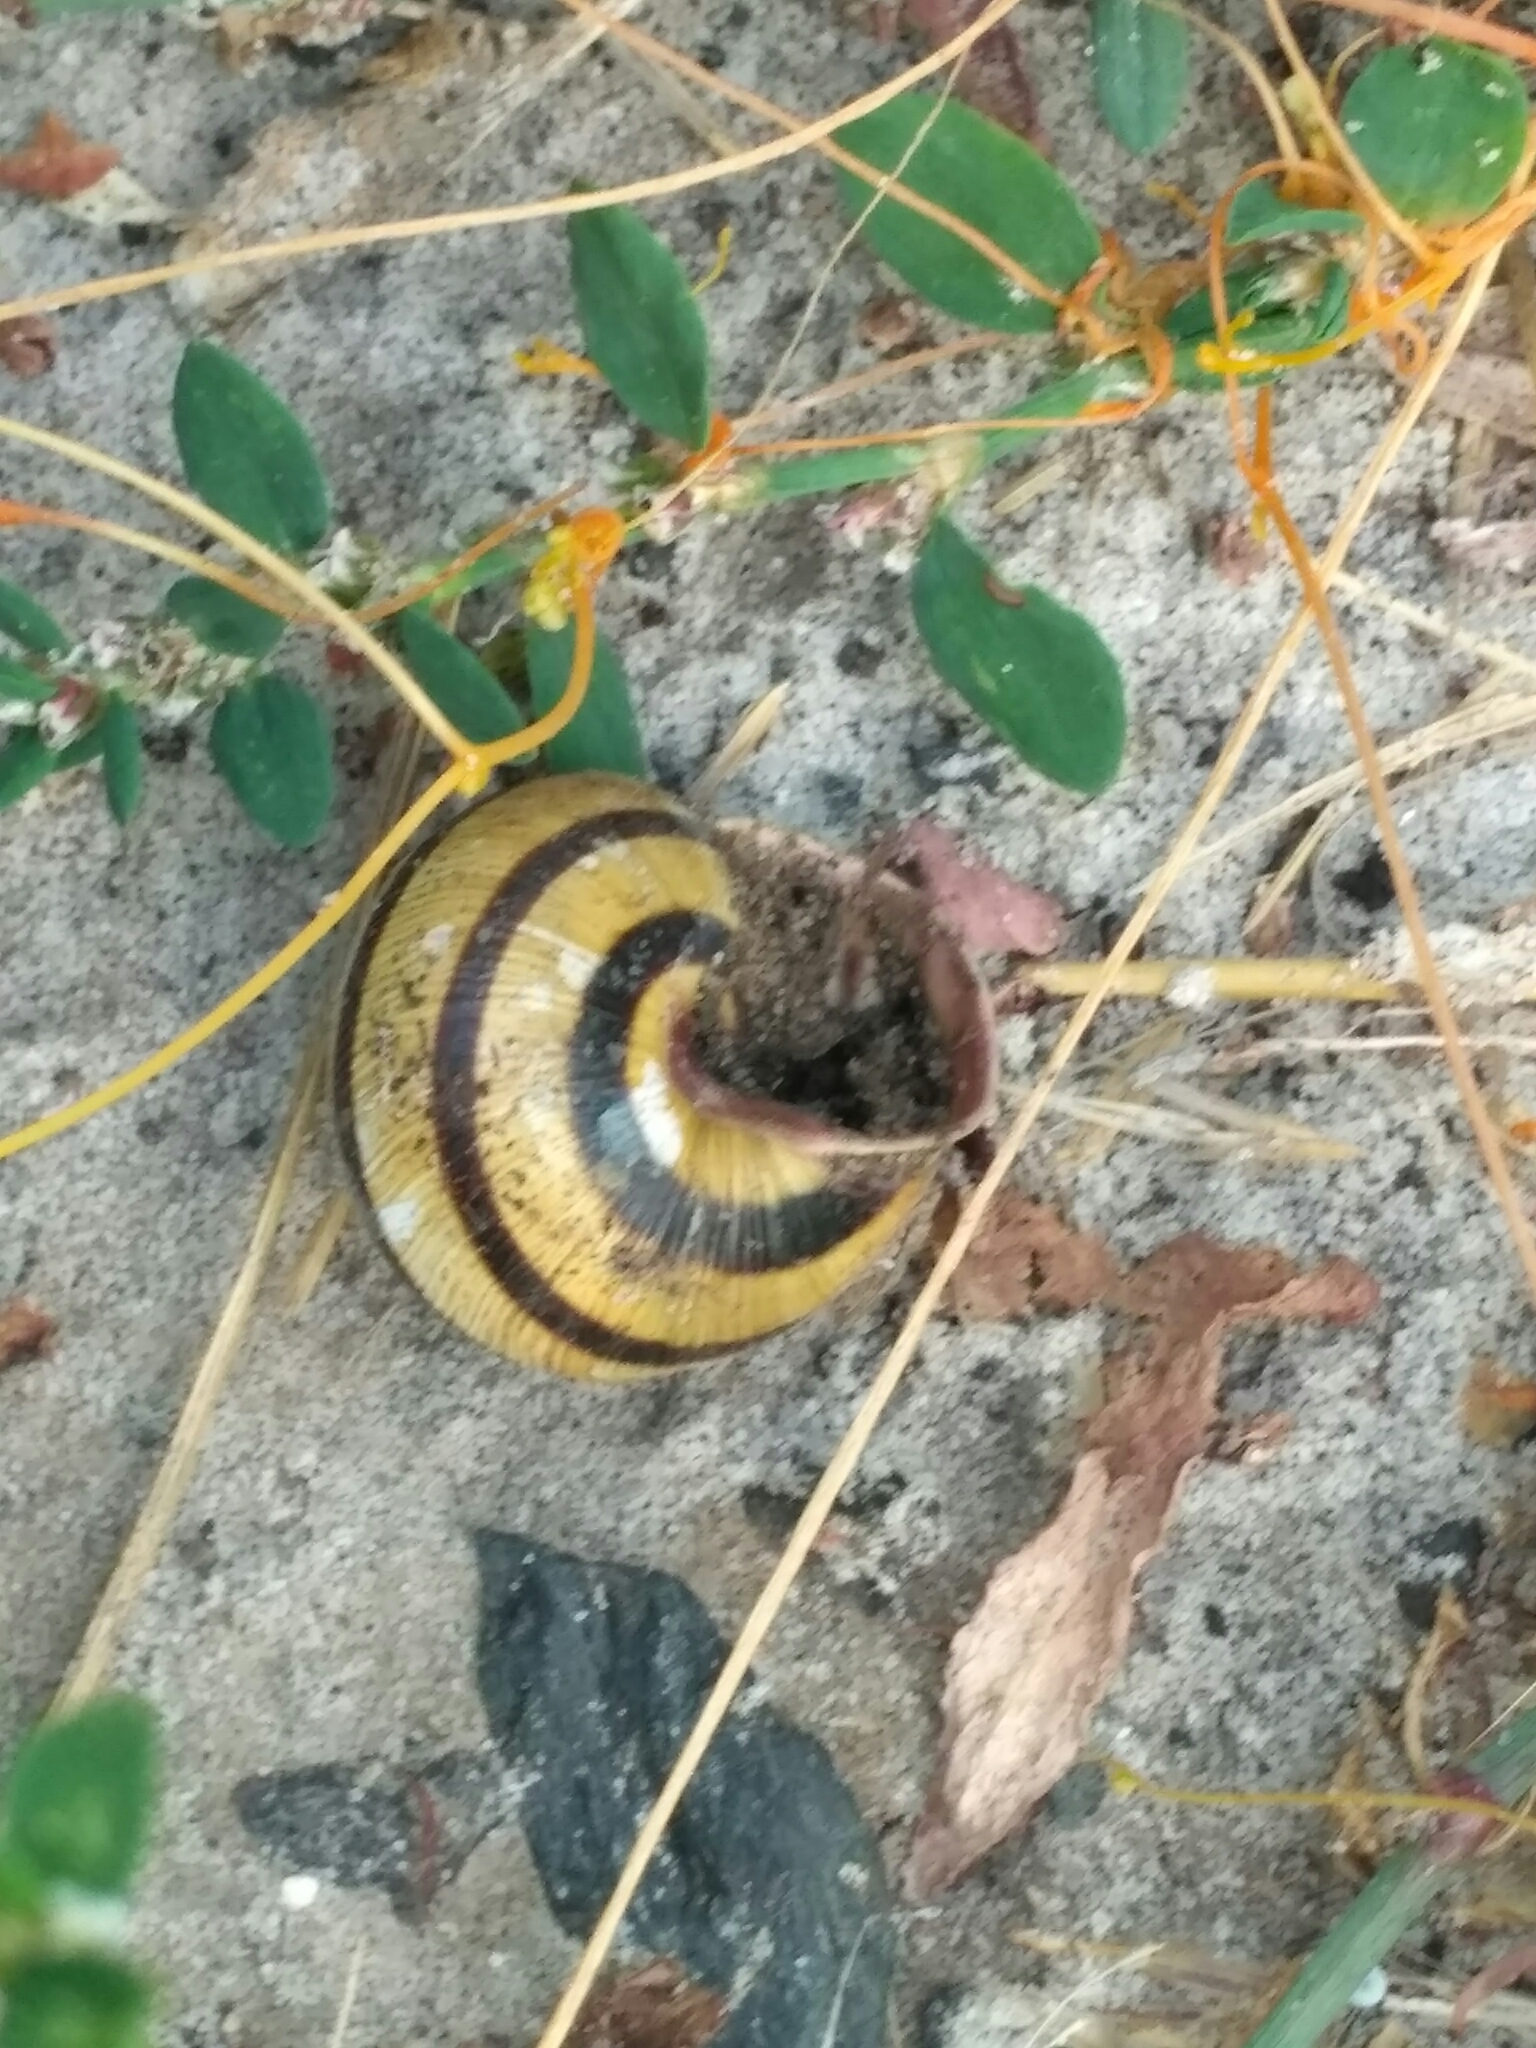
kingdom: Animalia
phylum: Mollusca
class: Gastropoda
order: Stylommatophora
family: Helicidae
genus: Caucasotachea
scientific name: Caucasotachea vindobonensis
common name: European helicid land snail
